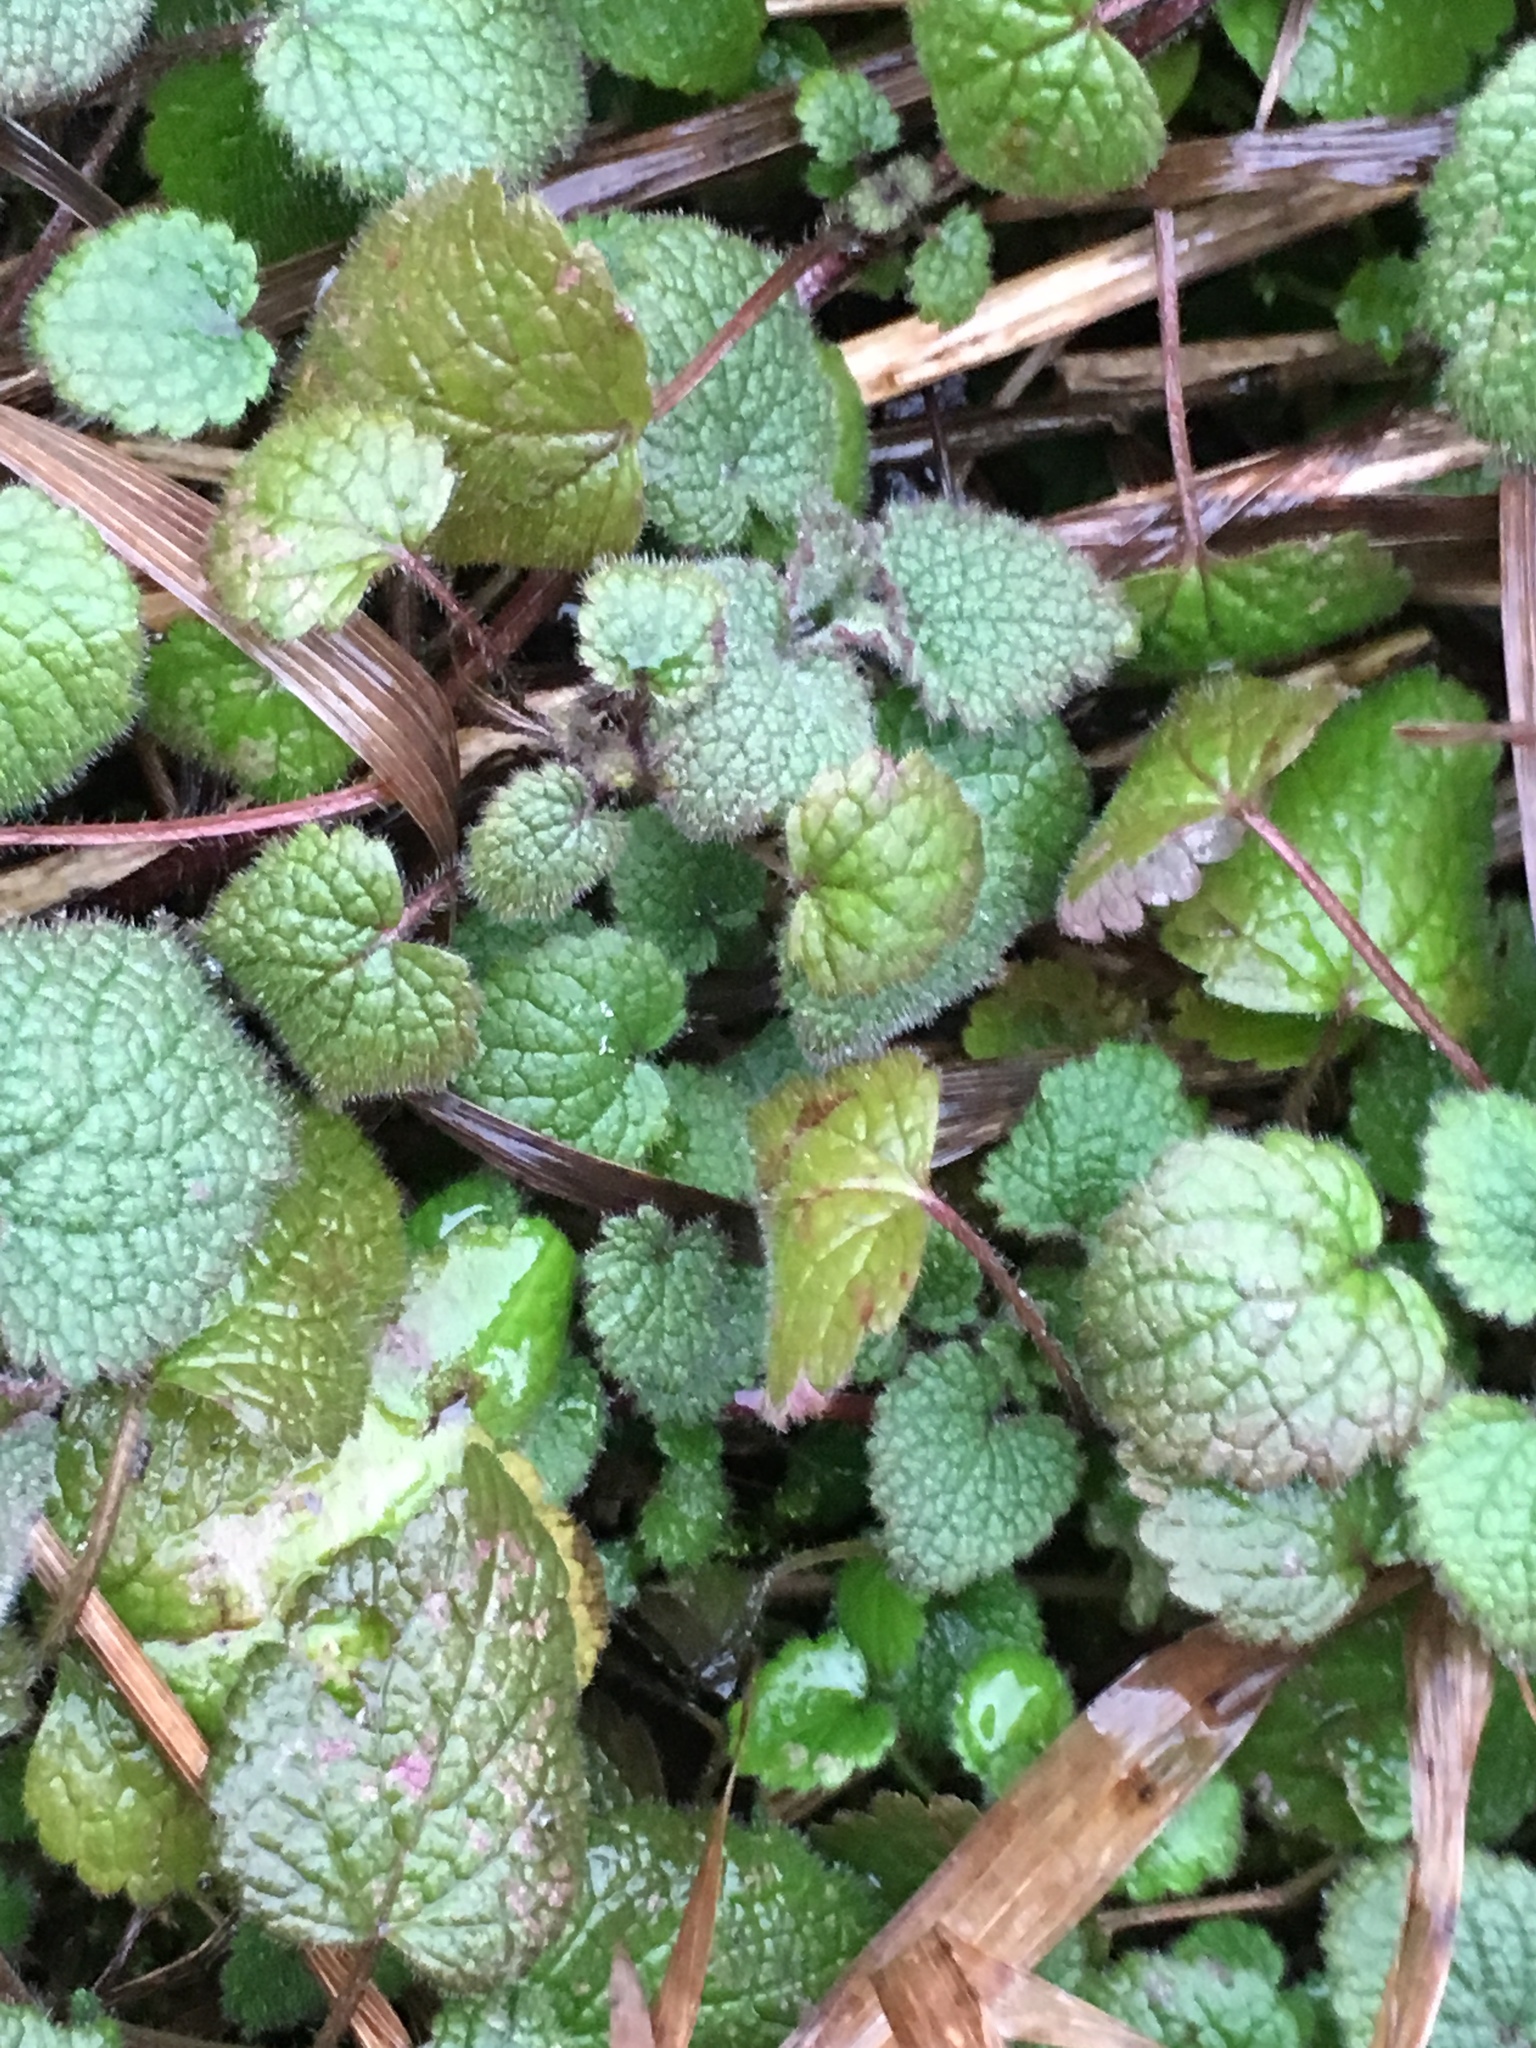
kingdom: Plantae
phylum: Tracheophyta
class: Magnoliopsida
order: Lamiales
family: Lamiaceae
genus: Lamium
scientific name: Lamium purpureum
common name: Red dead-nettle
